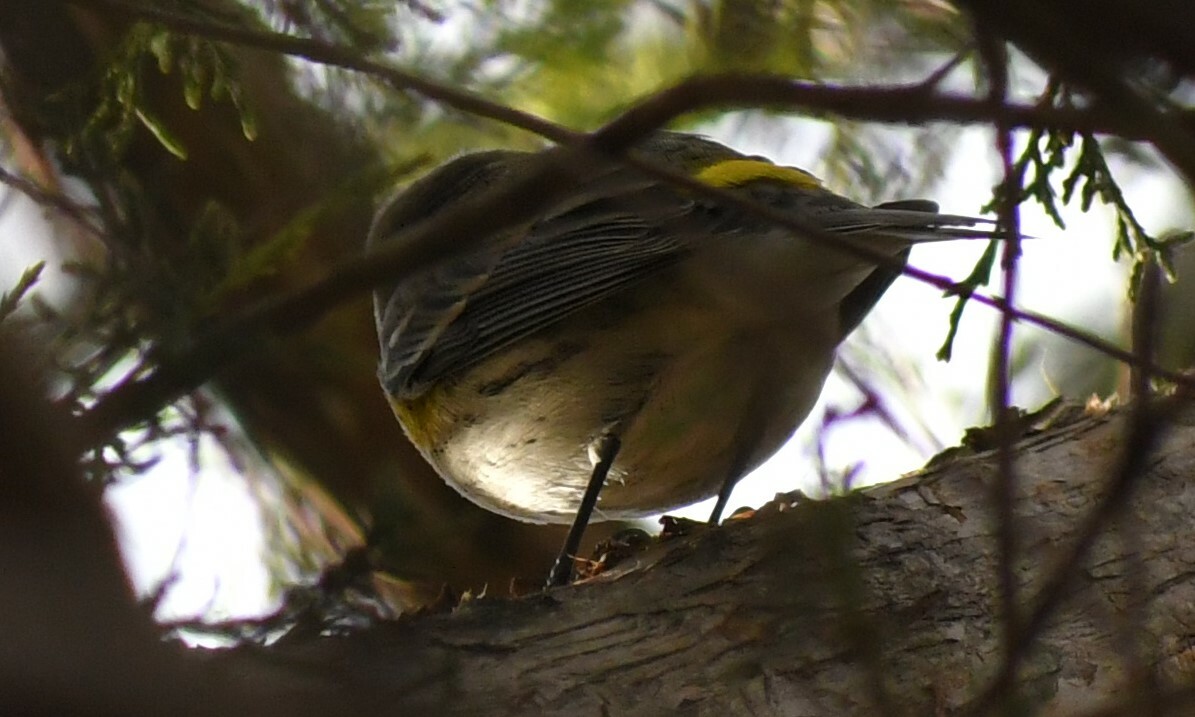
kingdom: Animalia
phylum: Chordata
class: Aves
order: Passeriformes
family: Parulidae
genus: Setophaga
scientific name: Setophaga coronata
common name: Myrtle warbler
